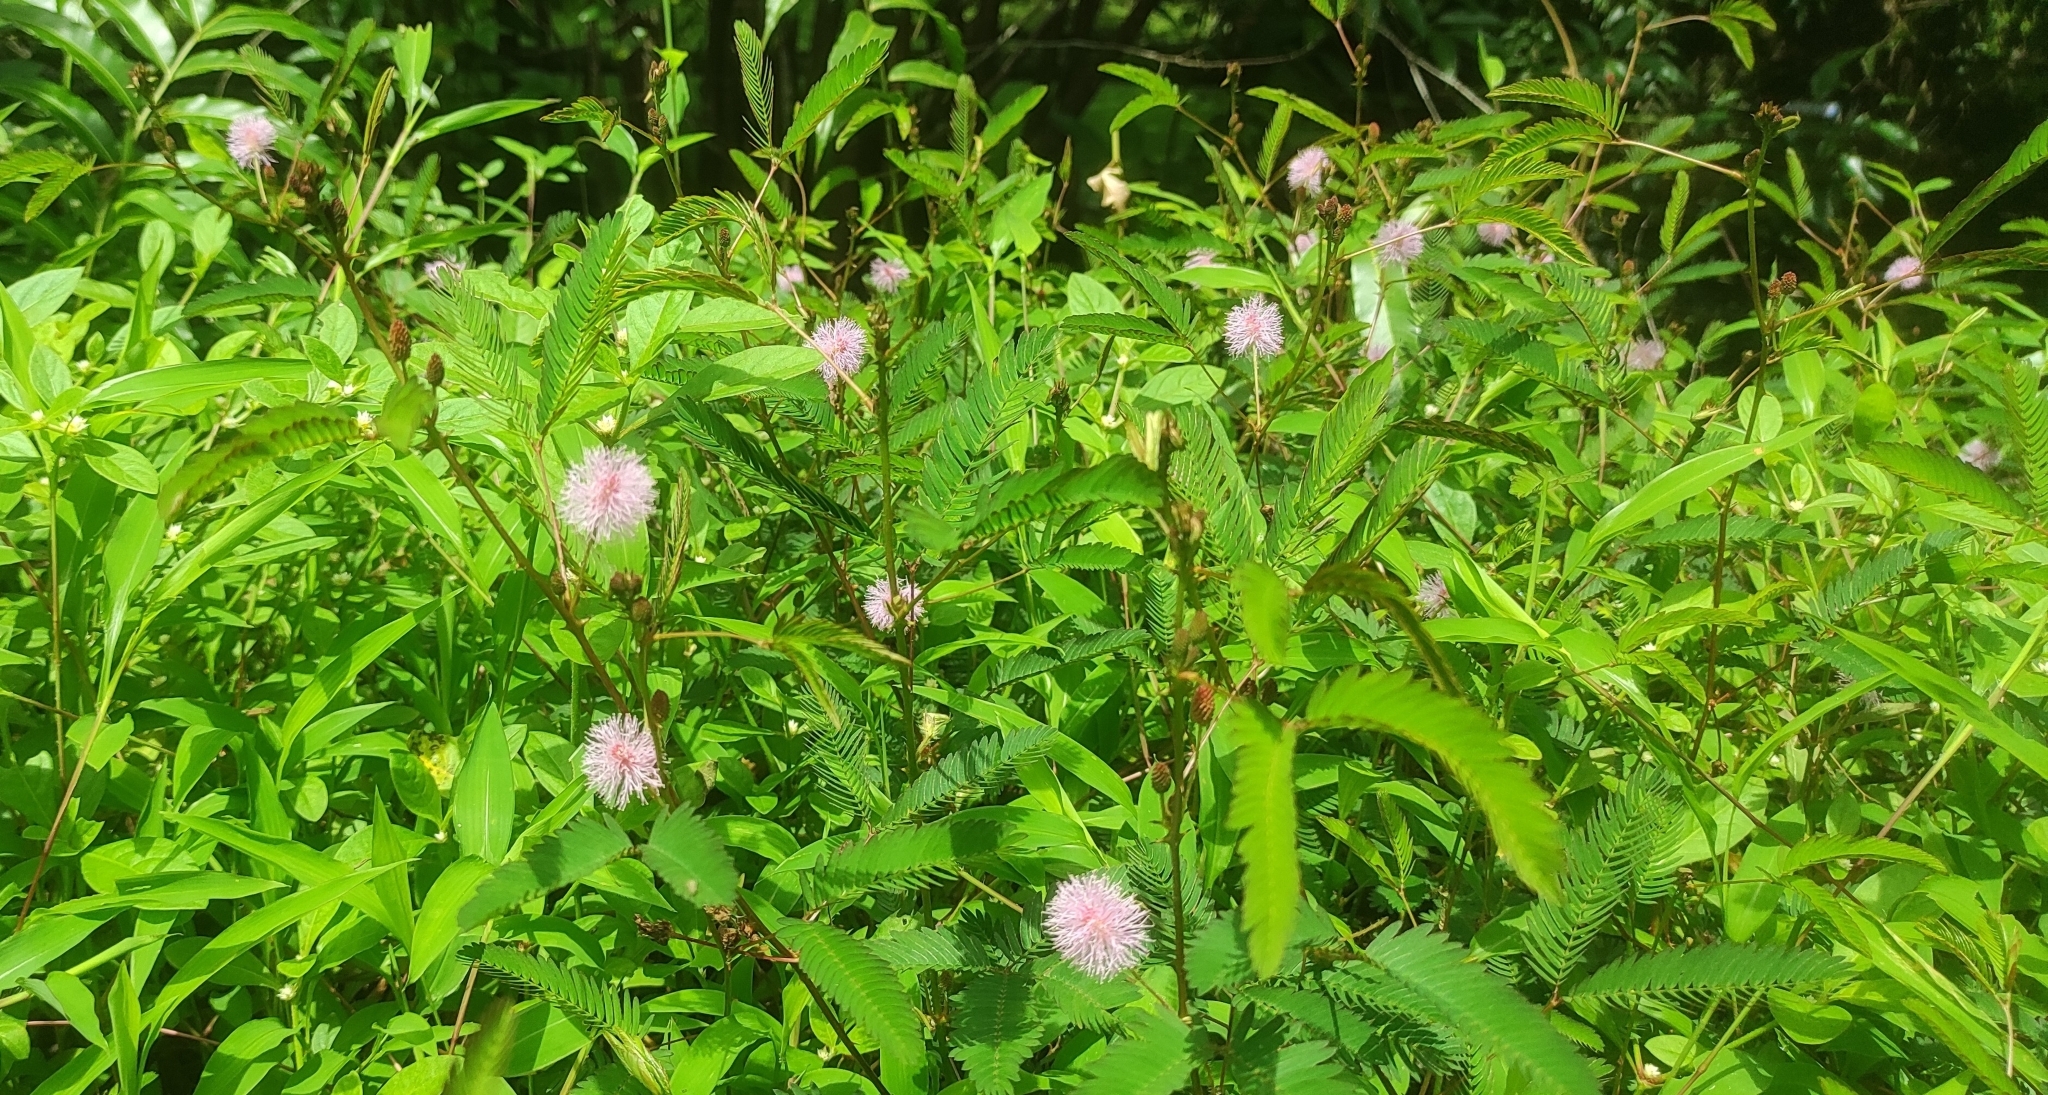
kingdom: Plantae
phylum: Tracheophyta
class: Magnoliopsida
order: Fabales
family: Fabaceae
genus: Mimosa
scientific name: Mimosa pudica
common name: Sensitive plant
